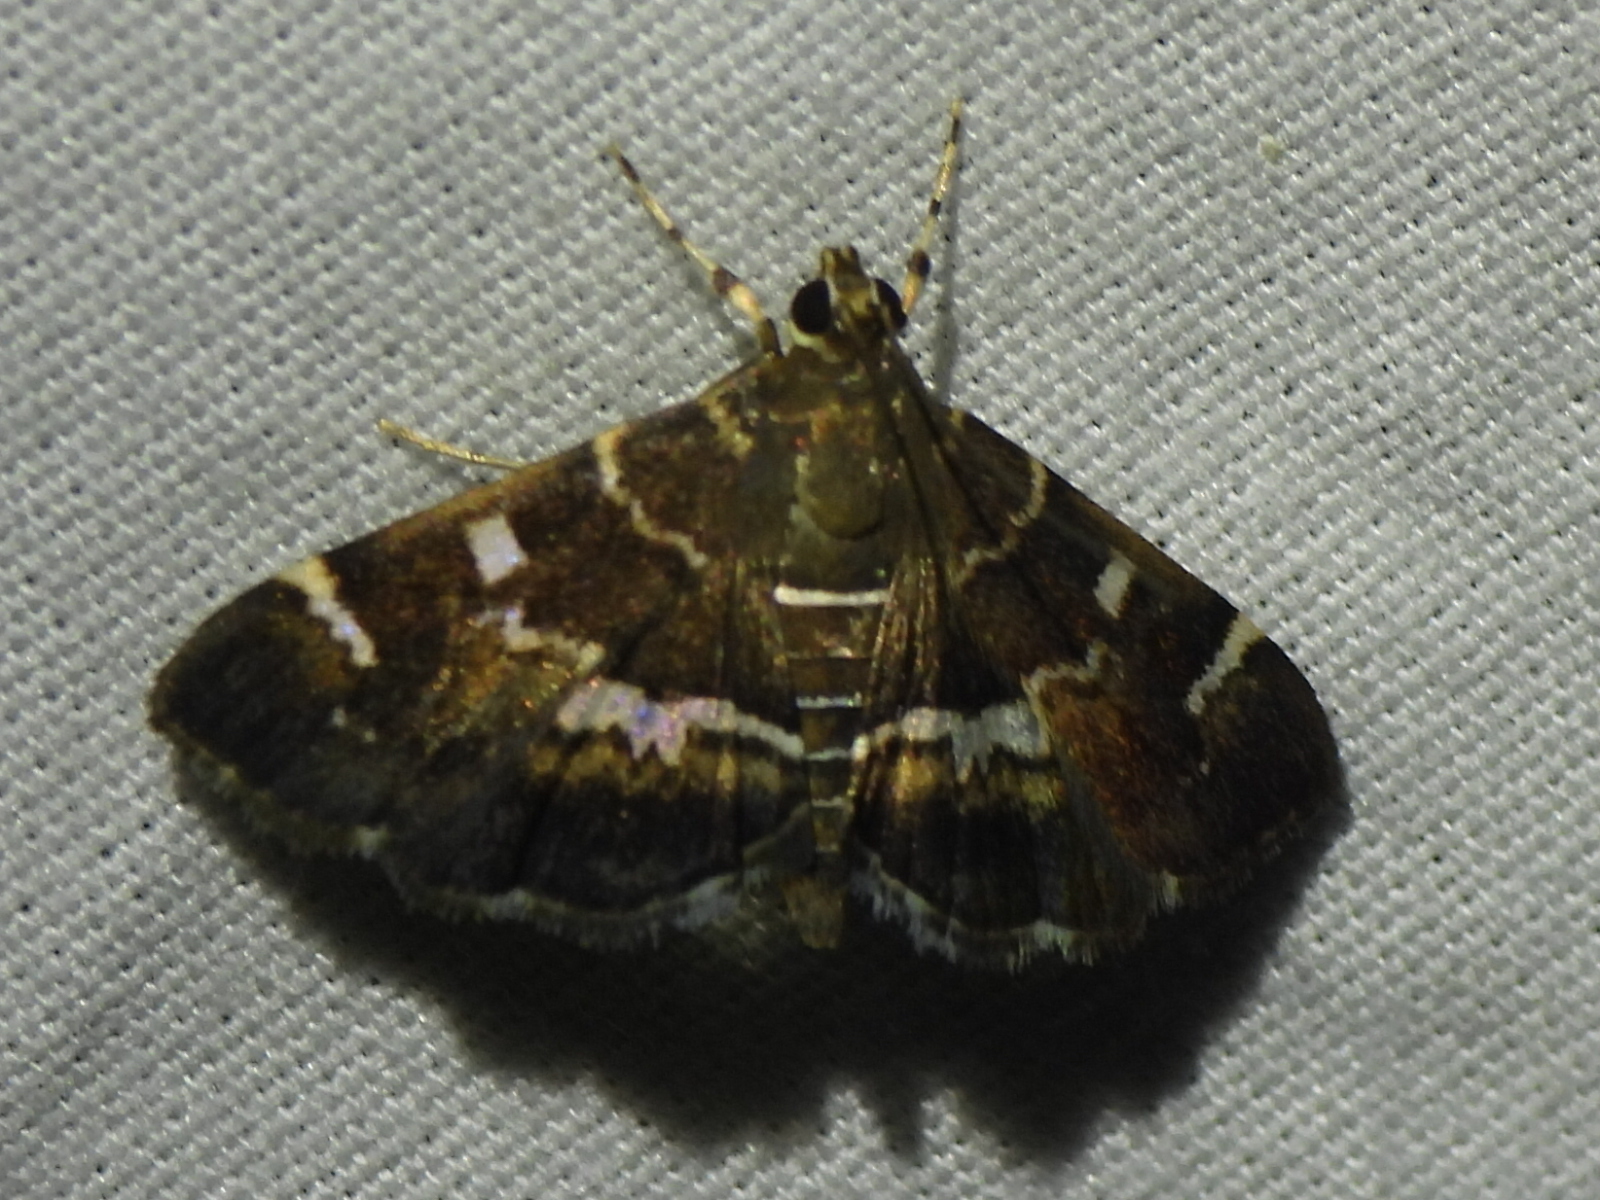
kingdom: Animalia
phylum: Arthropoda
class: Insecta
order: Lepidoptera
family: Crambidae
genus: Hymenia
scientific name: Hymenia perspectalis
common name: Spotted beet webworm
